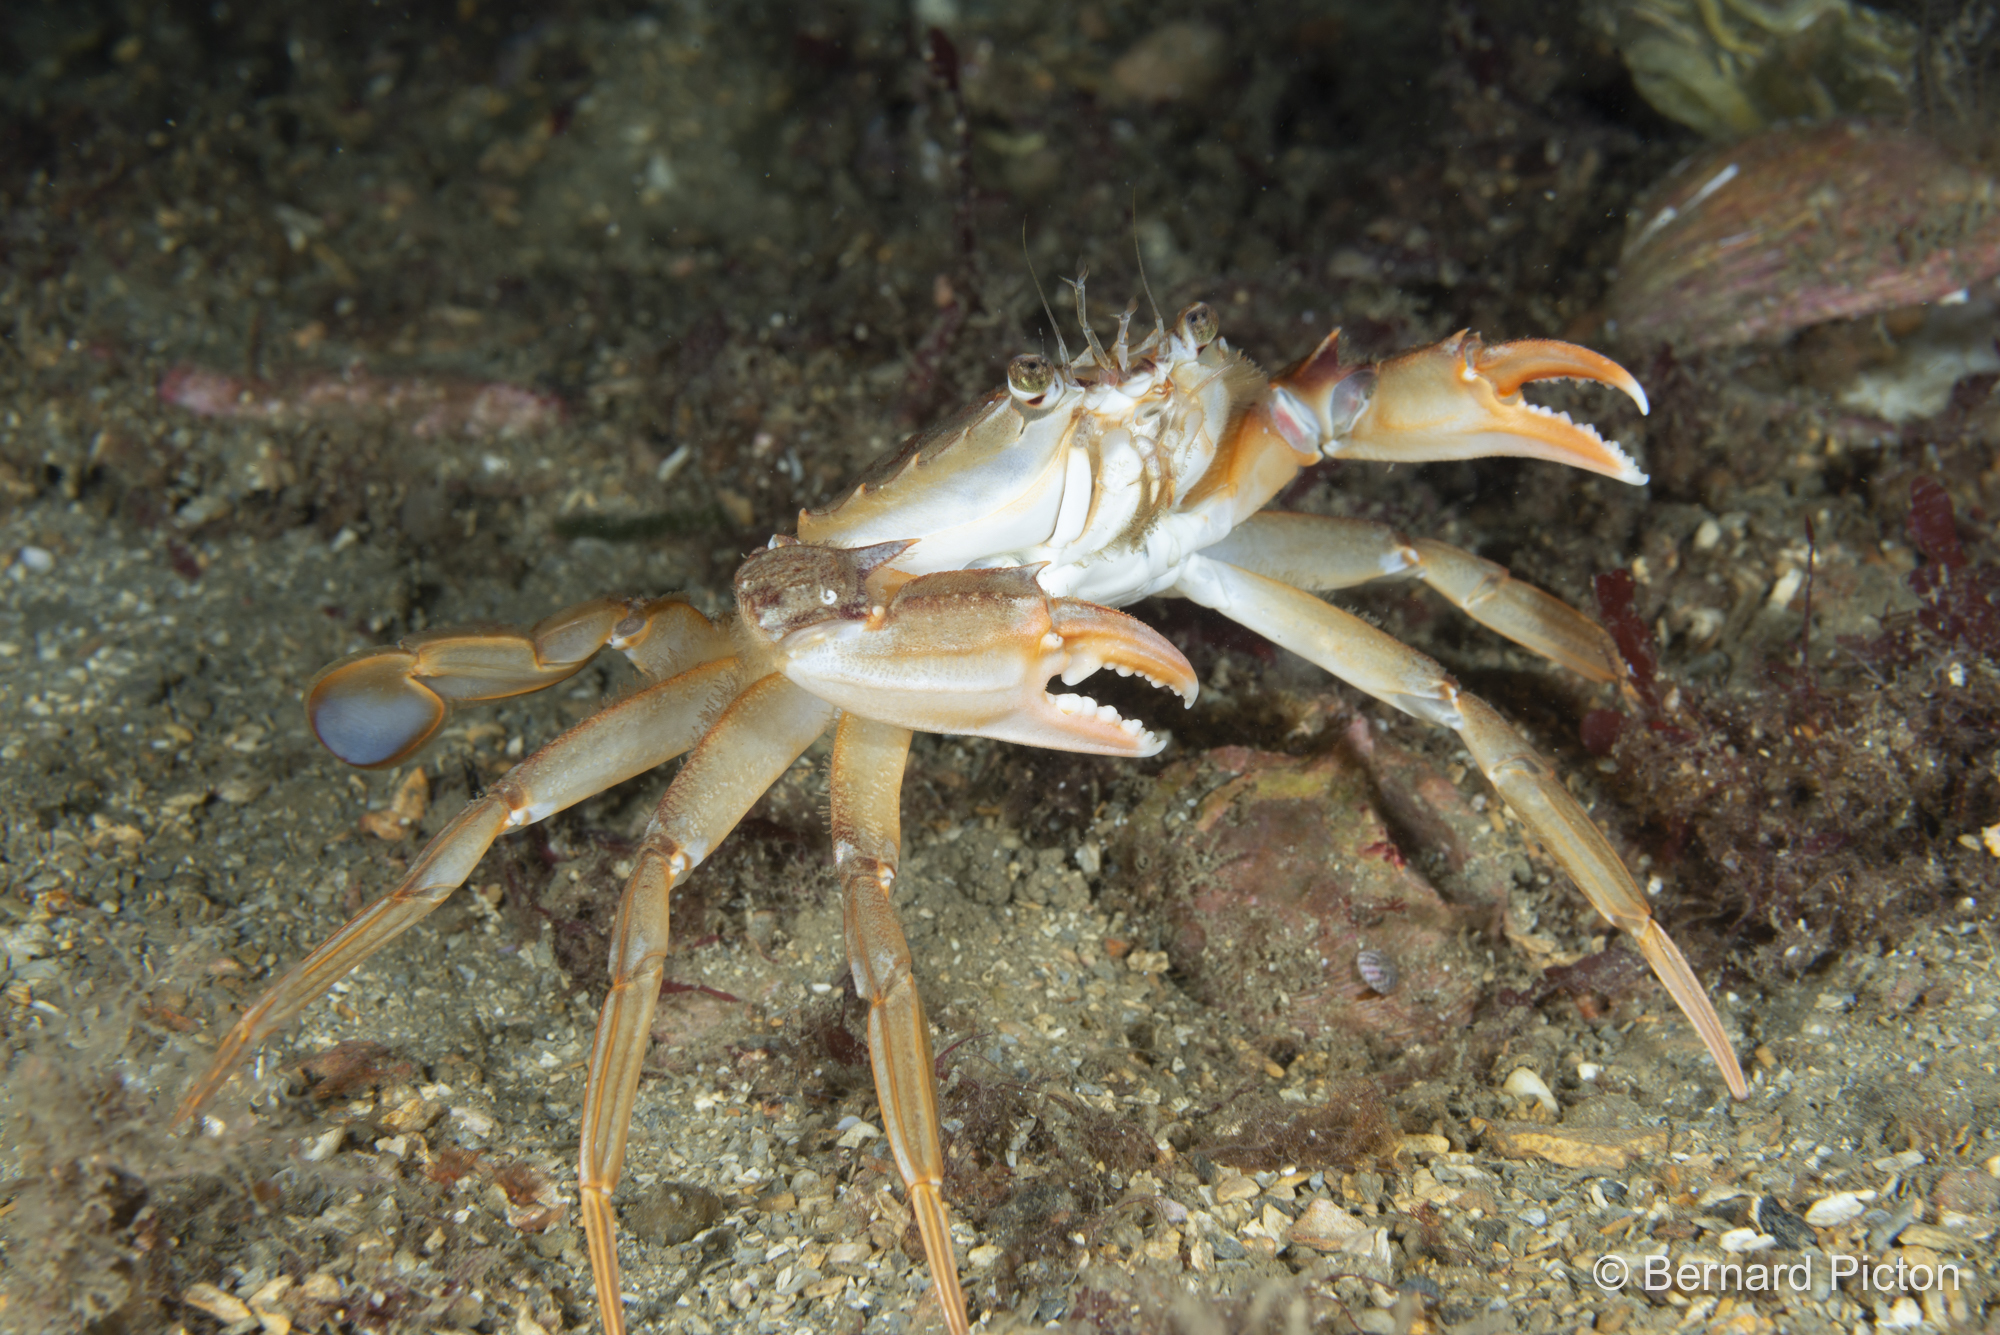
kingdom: Animalia
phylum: Arthropoda
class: Malacostraca
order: Decapoda
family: Polybiidae
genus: Liocarcinus
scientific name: Liocarcinus depurator
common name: Cleanser crab
